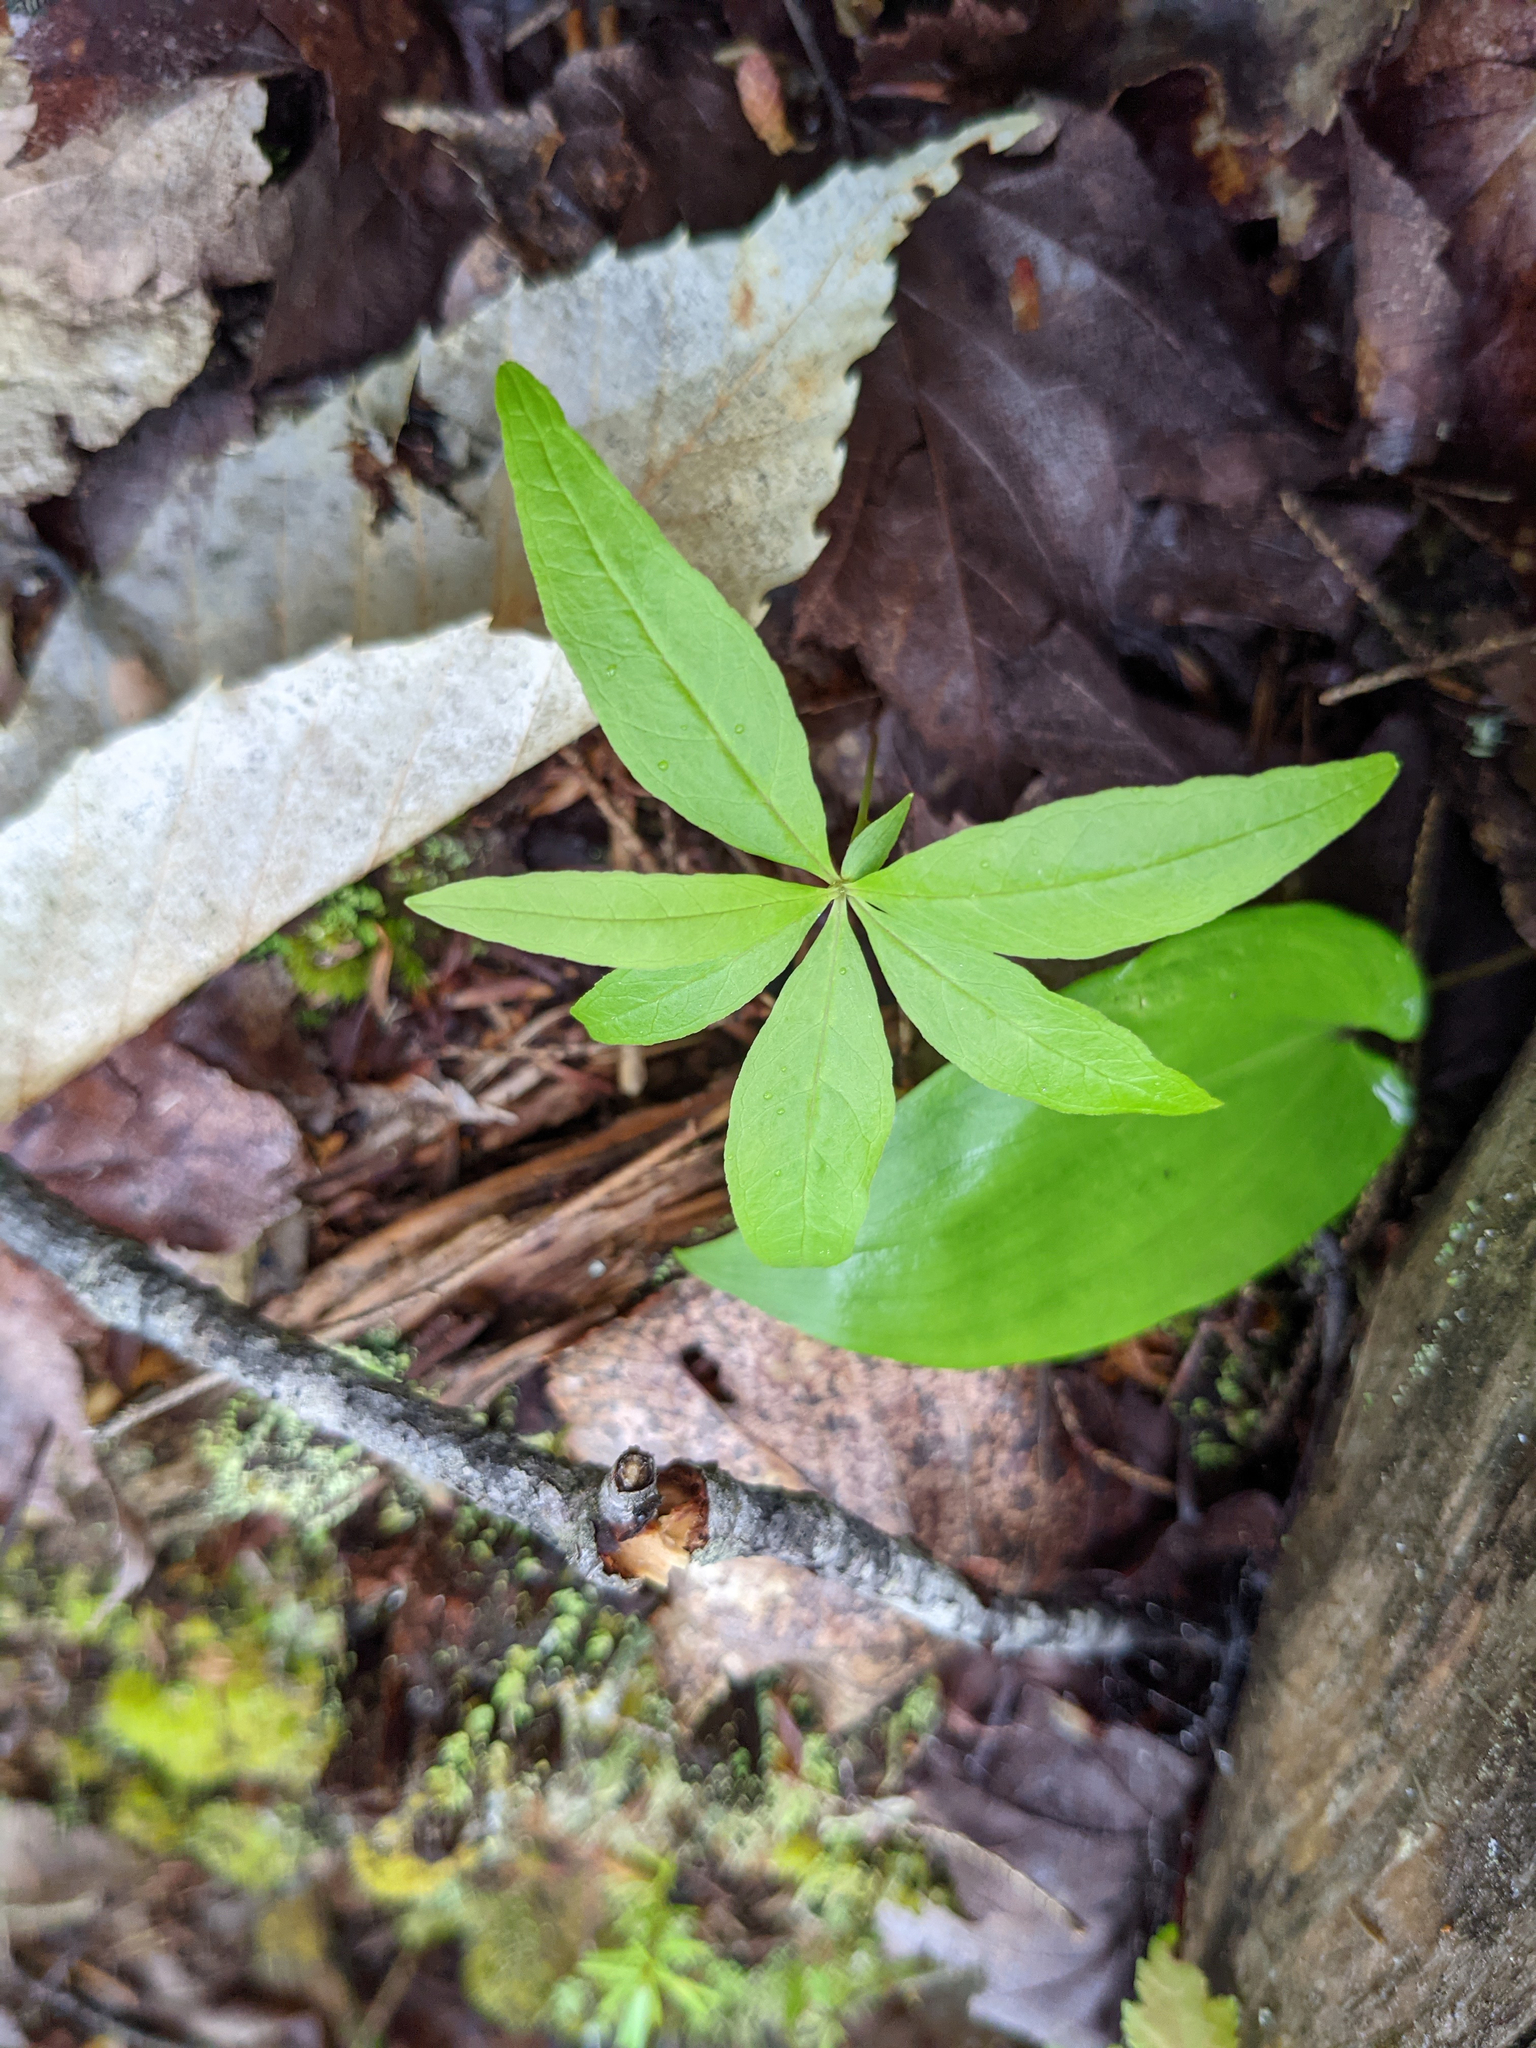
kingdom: Plantae
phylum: Tracheophyta
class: Magnoliopsida
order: Ericales
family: Primulaceae
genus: Lysimachia
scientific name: Lysimachia borealis
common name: American starflower
